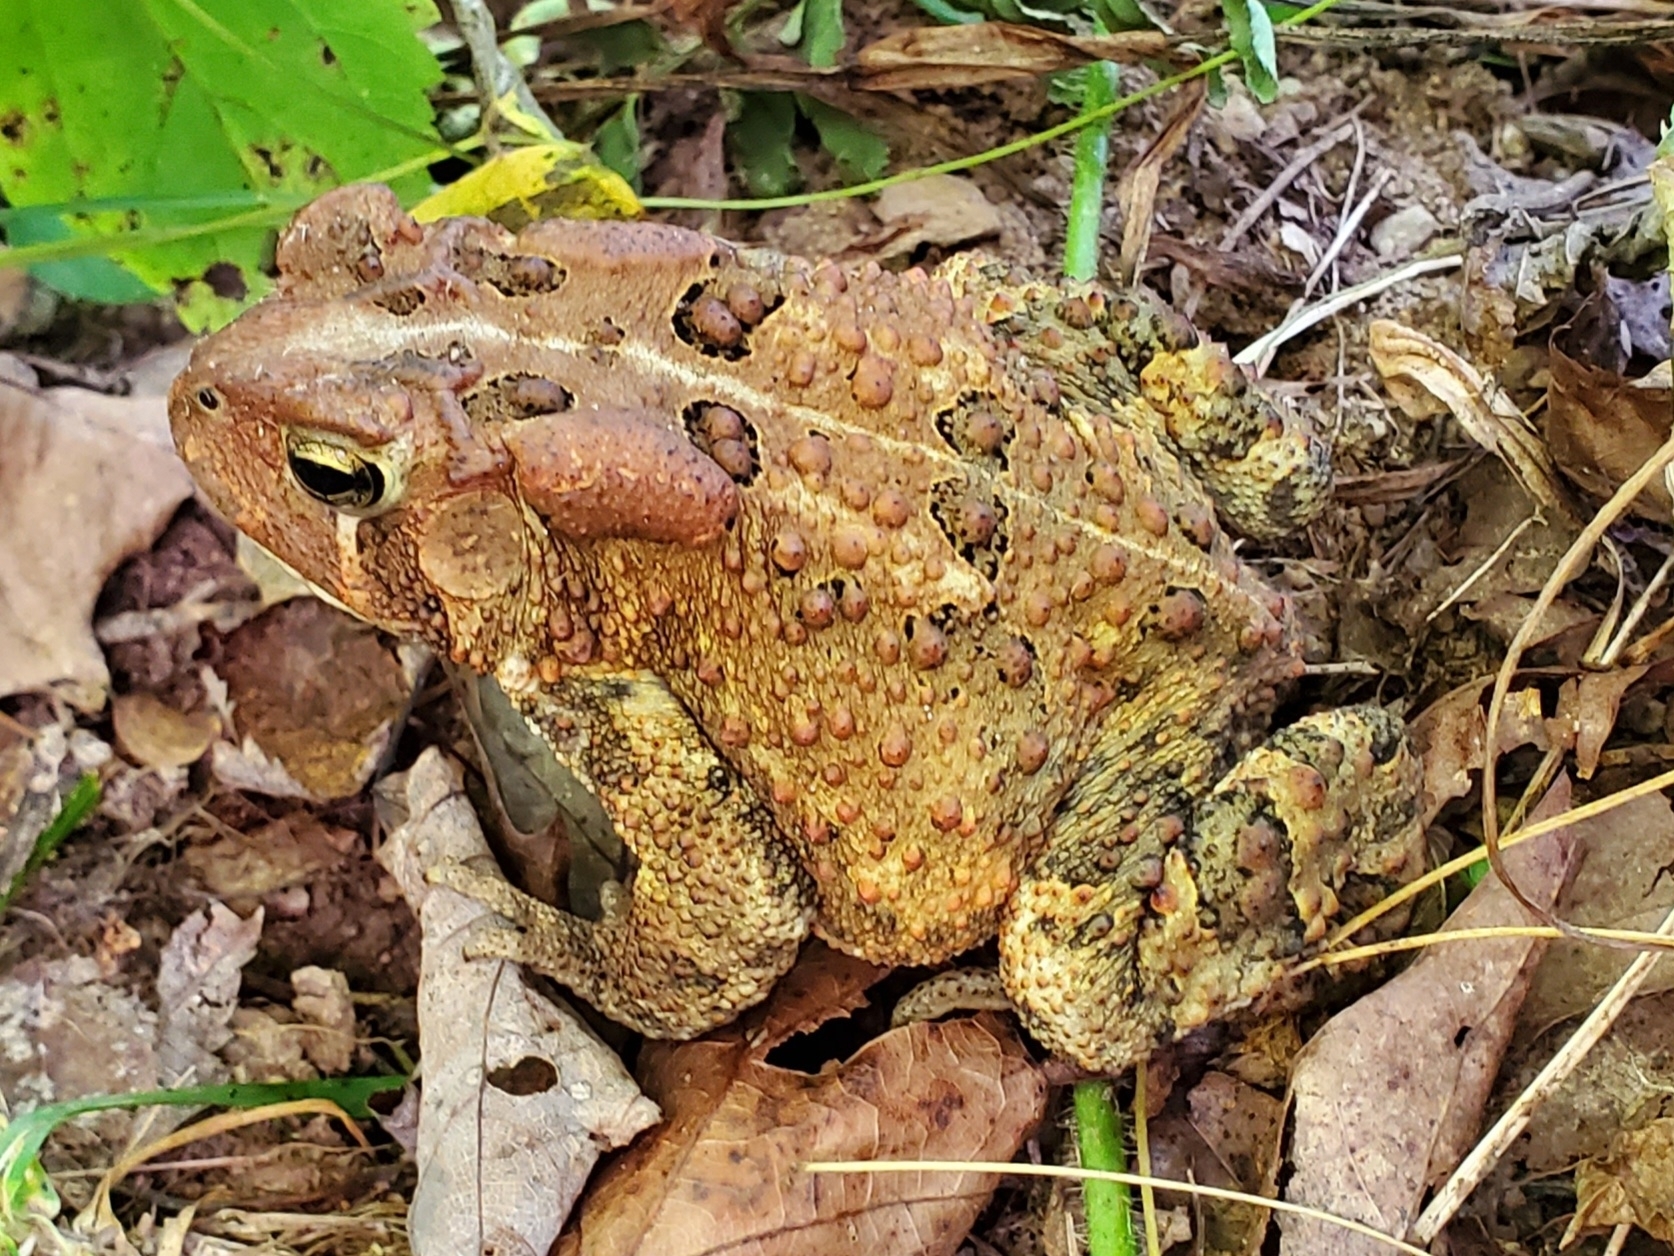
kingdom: Animalia
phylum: Chordata
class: Amphibia
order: Anura
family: Bufonidae
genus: Anaxyrus
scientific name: Anaxyrus americanus
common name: American toad
